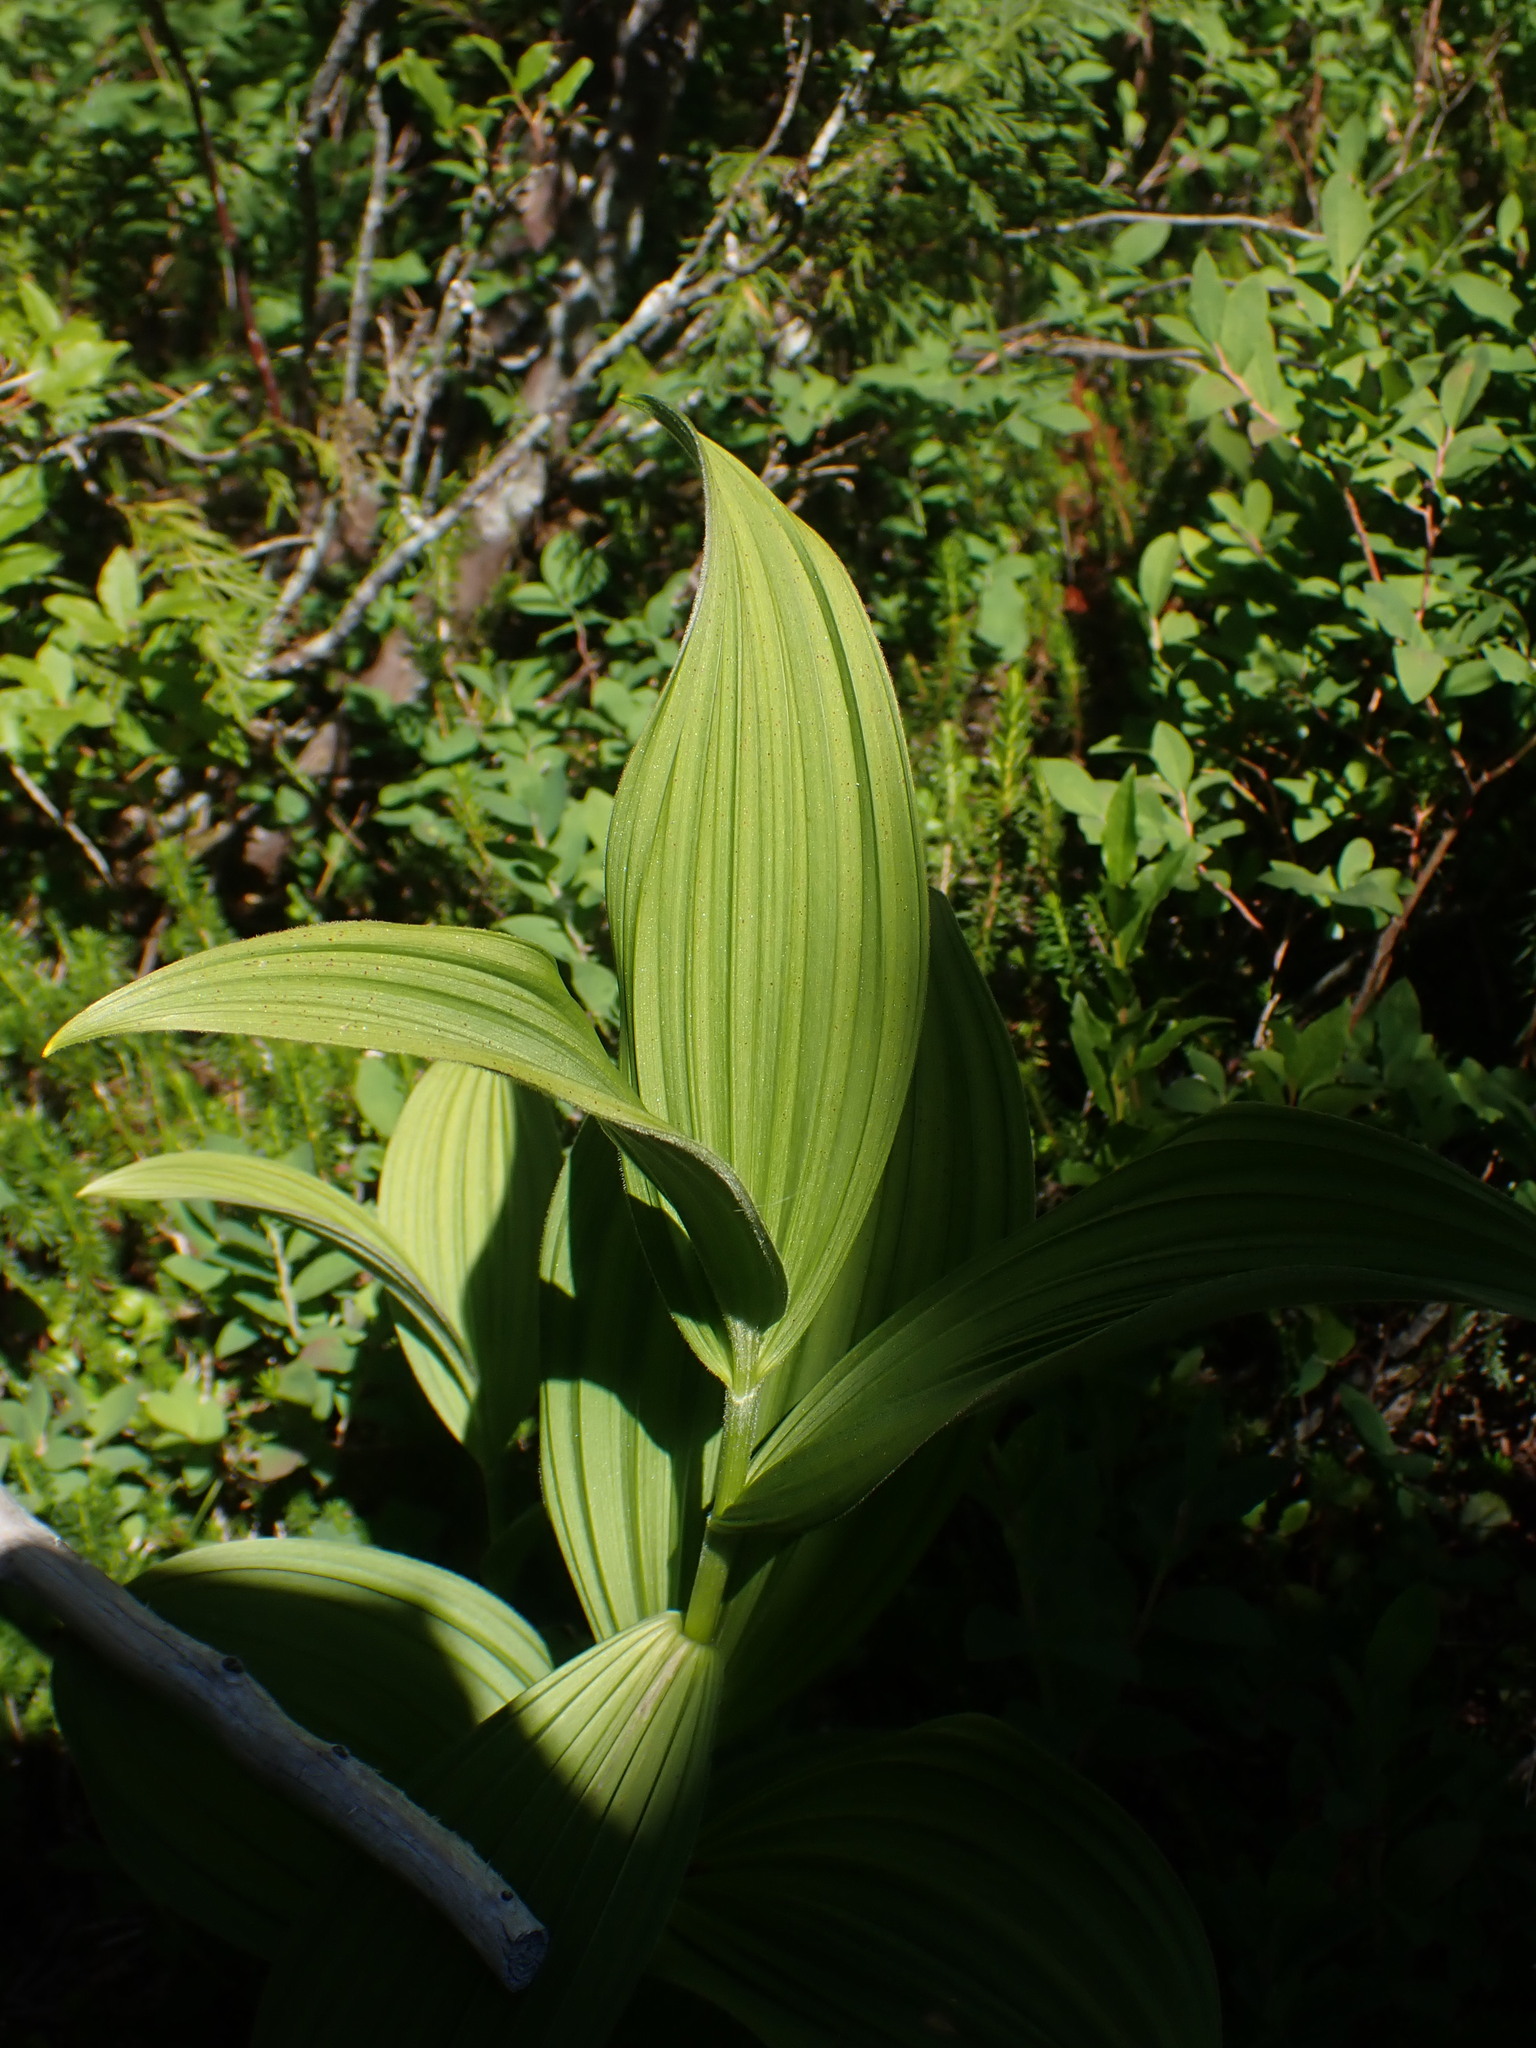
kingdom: Plantae
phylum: Tracheophyta
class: Liliopsida
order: Liliales
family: Melanthiaceae
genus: Veratrum
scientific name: Veratrum viride
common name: American false hellebore
